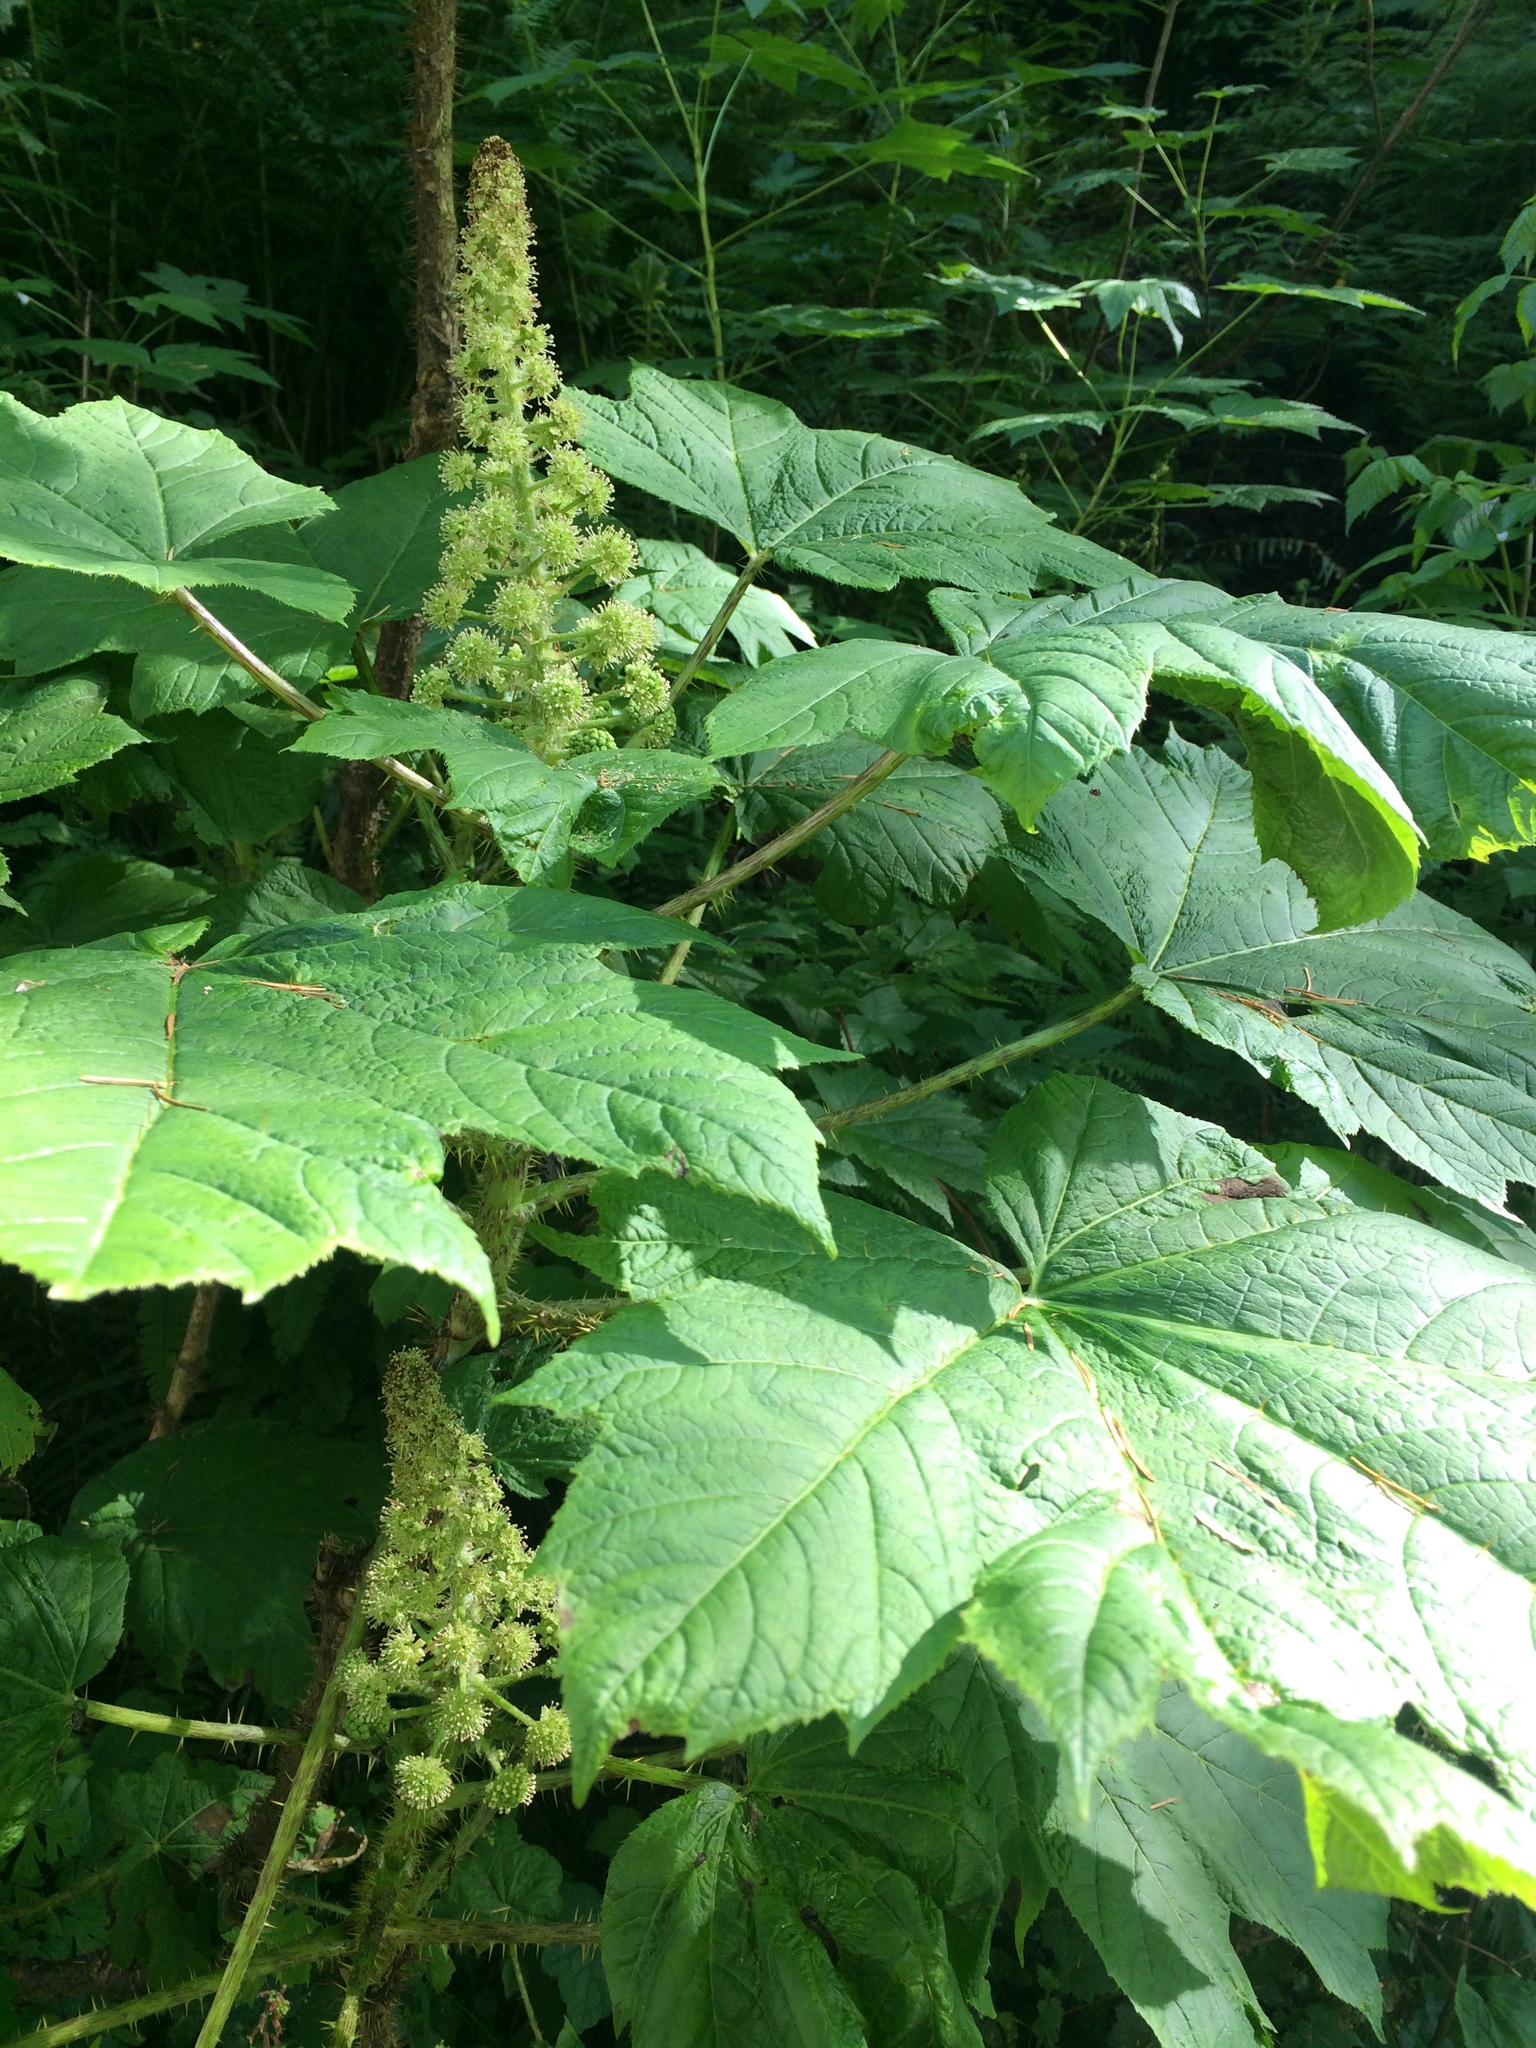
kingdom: Plantae
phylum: Tracheophyta
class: Magnoliopsida
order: Apiales
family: Araliaceae
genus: Oplopanax
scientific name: Oplopanax horridus
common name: Devil's walking-stick
